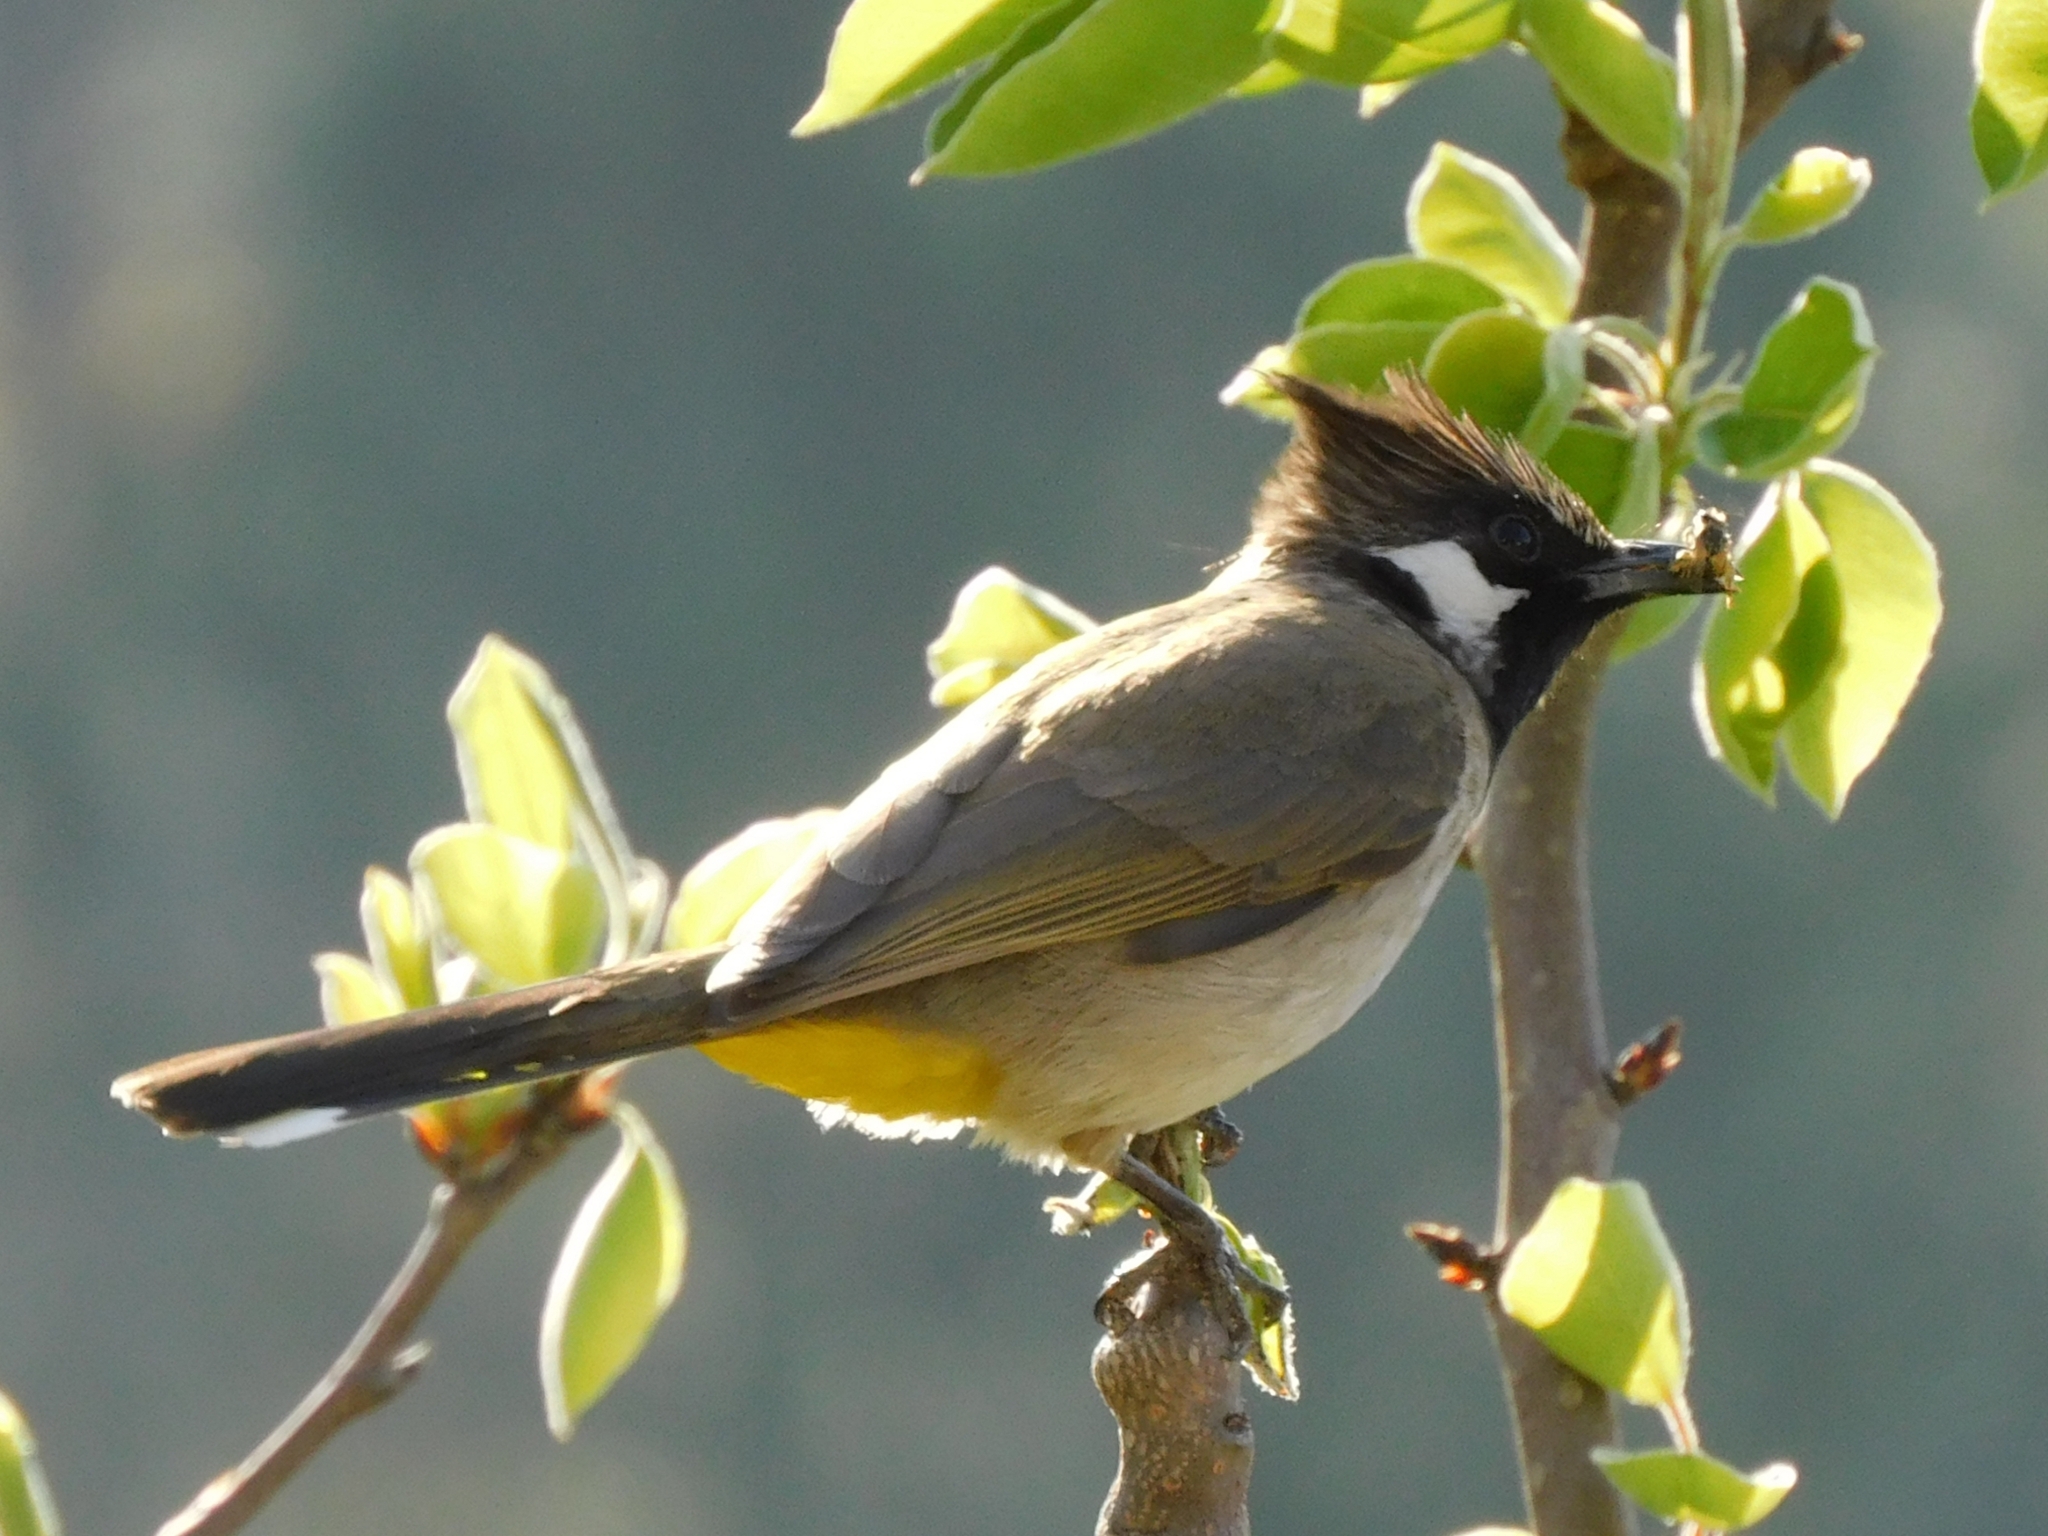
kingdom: Animalia
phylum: Chordata
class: Aves
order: Passeriformes
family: Pycnonotidae
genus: Pycnonotus
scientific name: Pycnonotus leucogenys
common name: Himalayan bulbul
